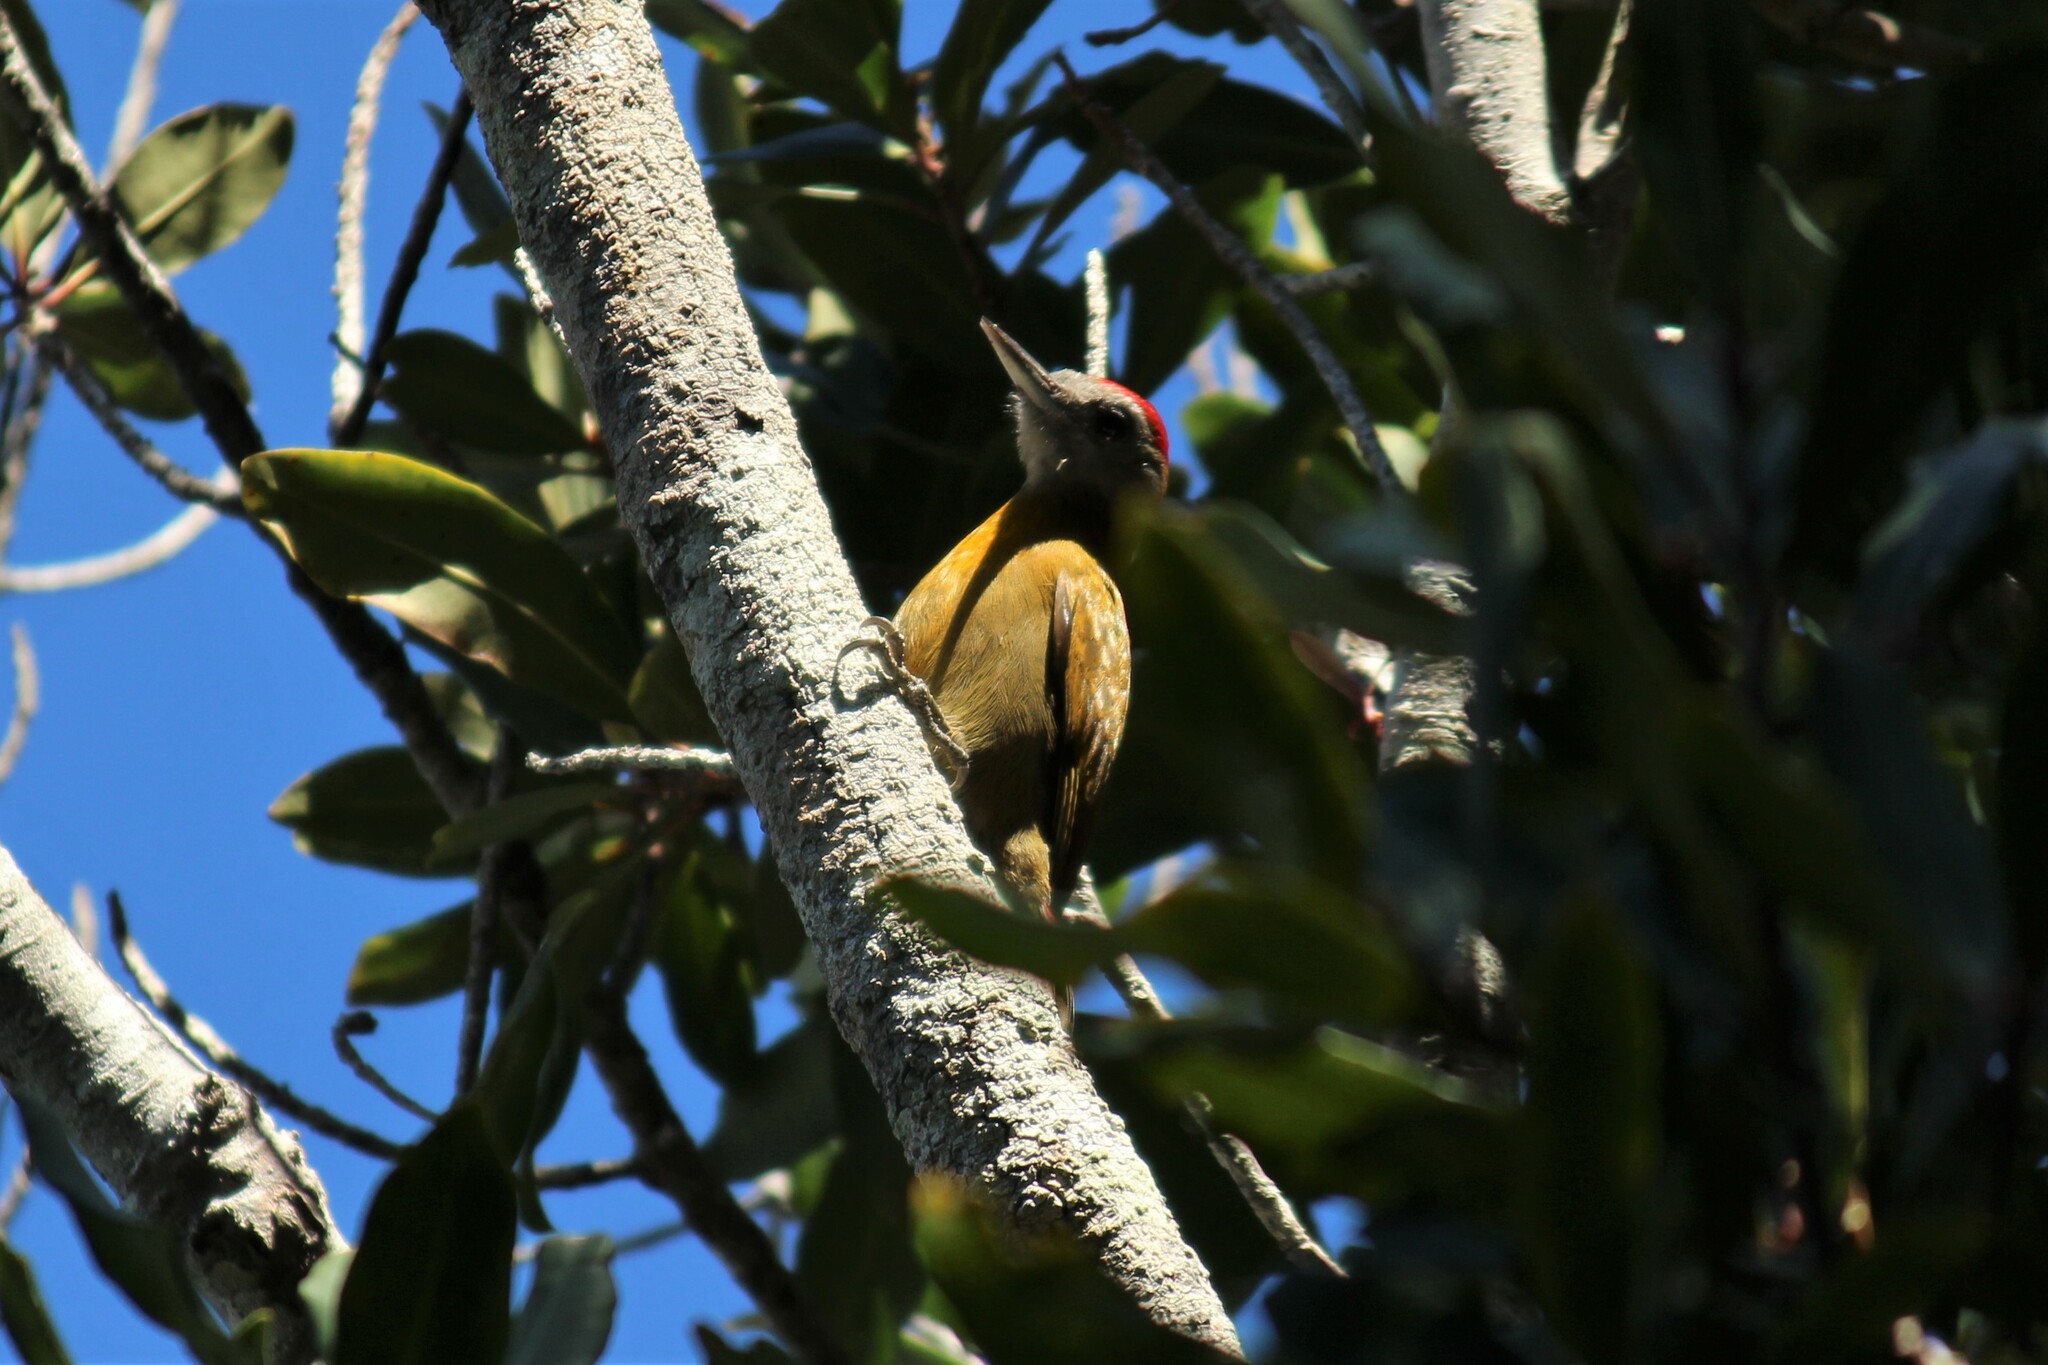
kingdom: Animalia
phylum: Chordata
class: Aves
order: Piciformes
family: Picidae
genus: Dendropicos
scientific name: Dendropicos griseocephalus
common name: Olive woodpecker
